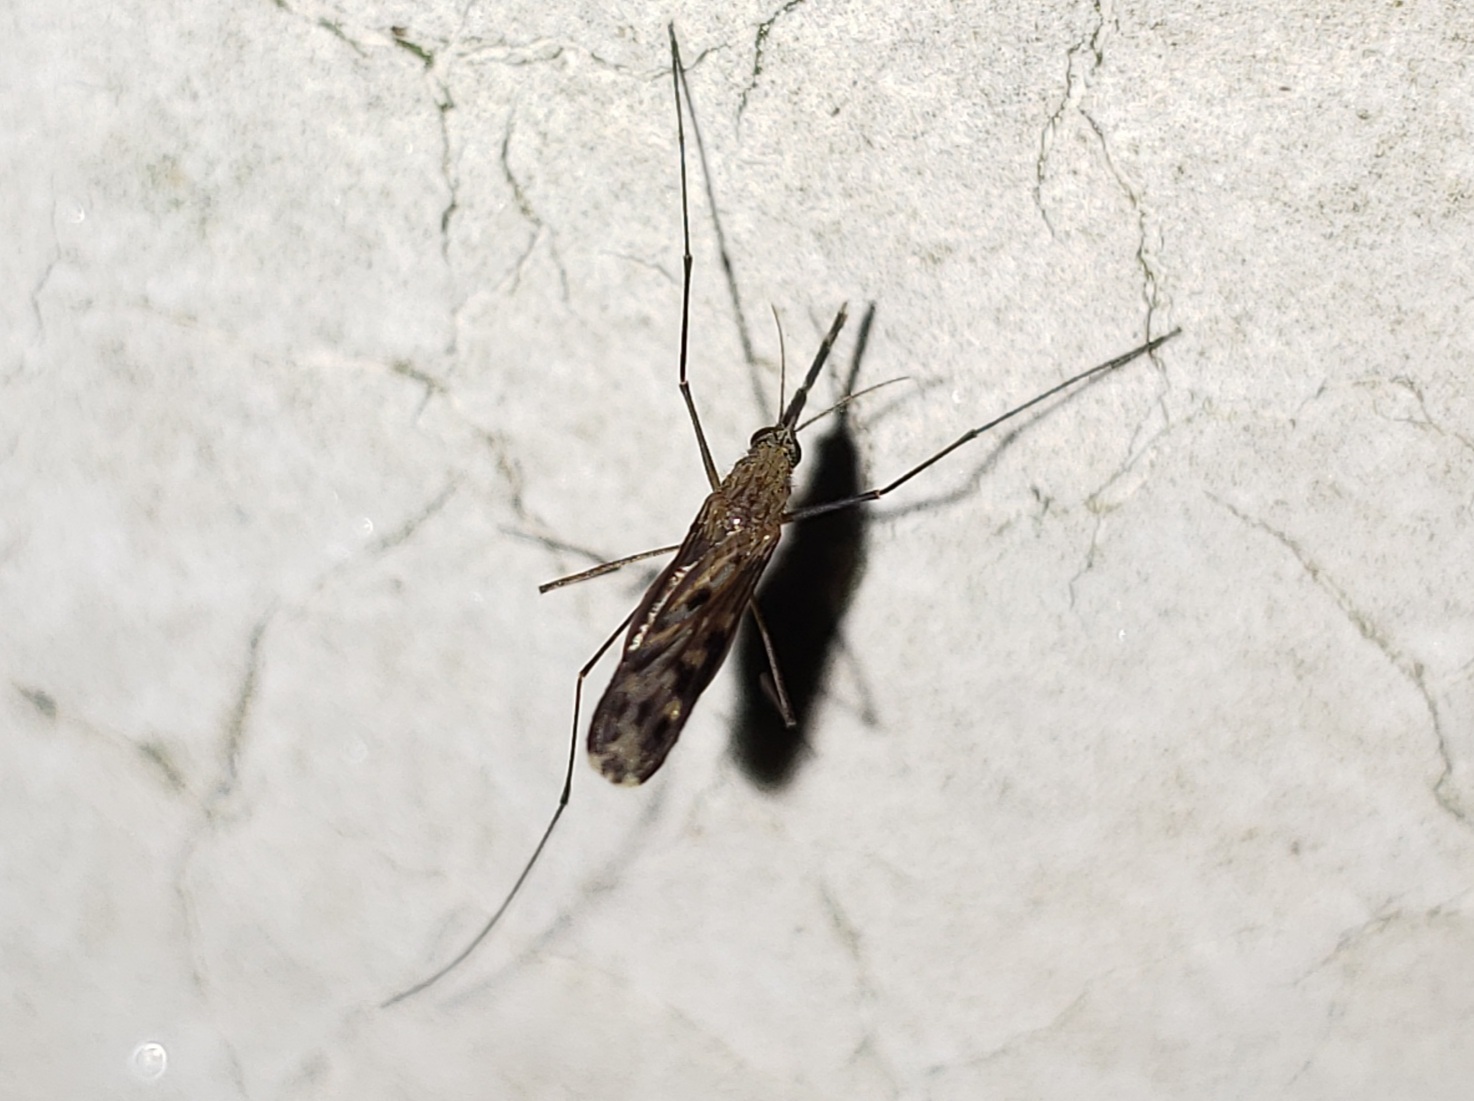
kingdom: Animalia
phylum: Arthropoda
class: Insecta
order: Diptera
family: Culicidae
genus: Anopheles
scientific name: Anopheles
